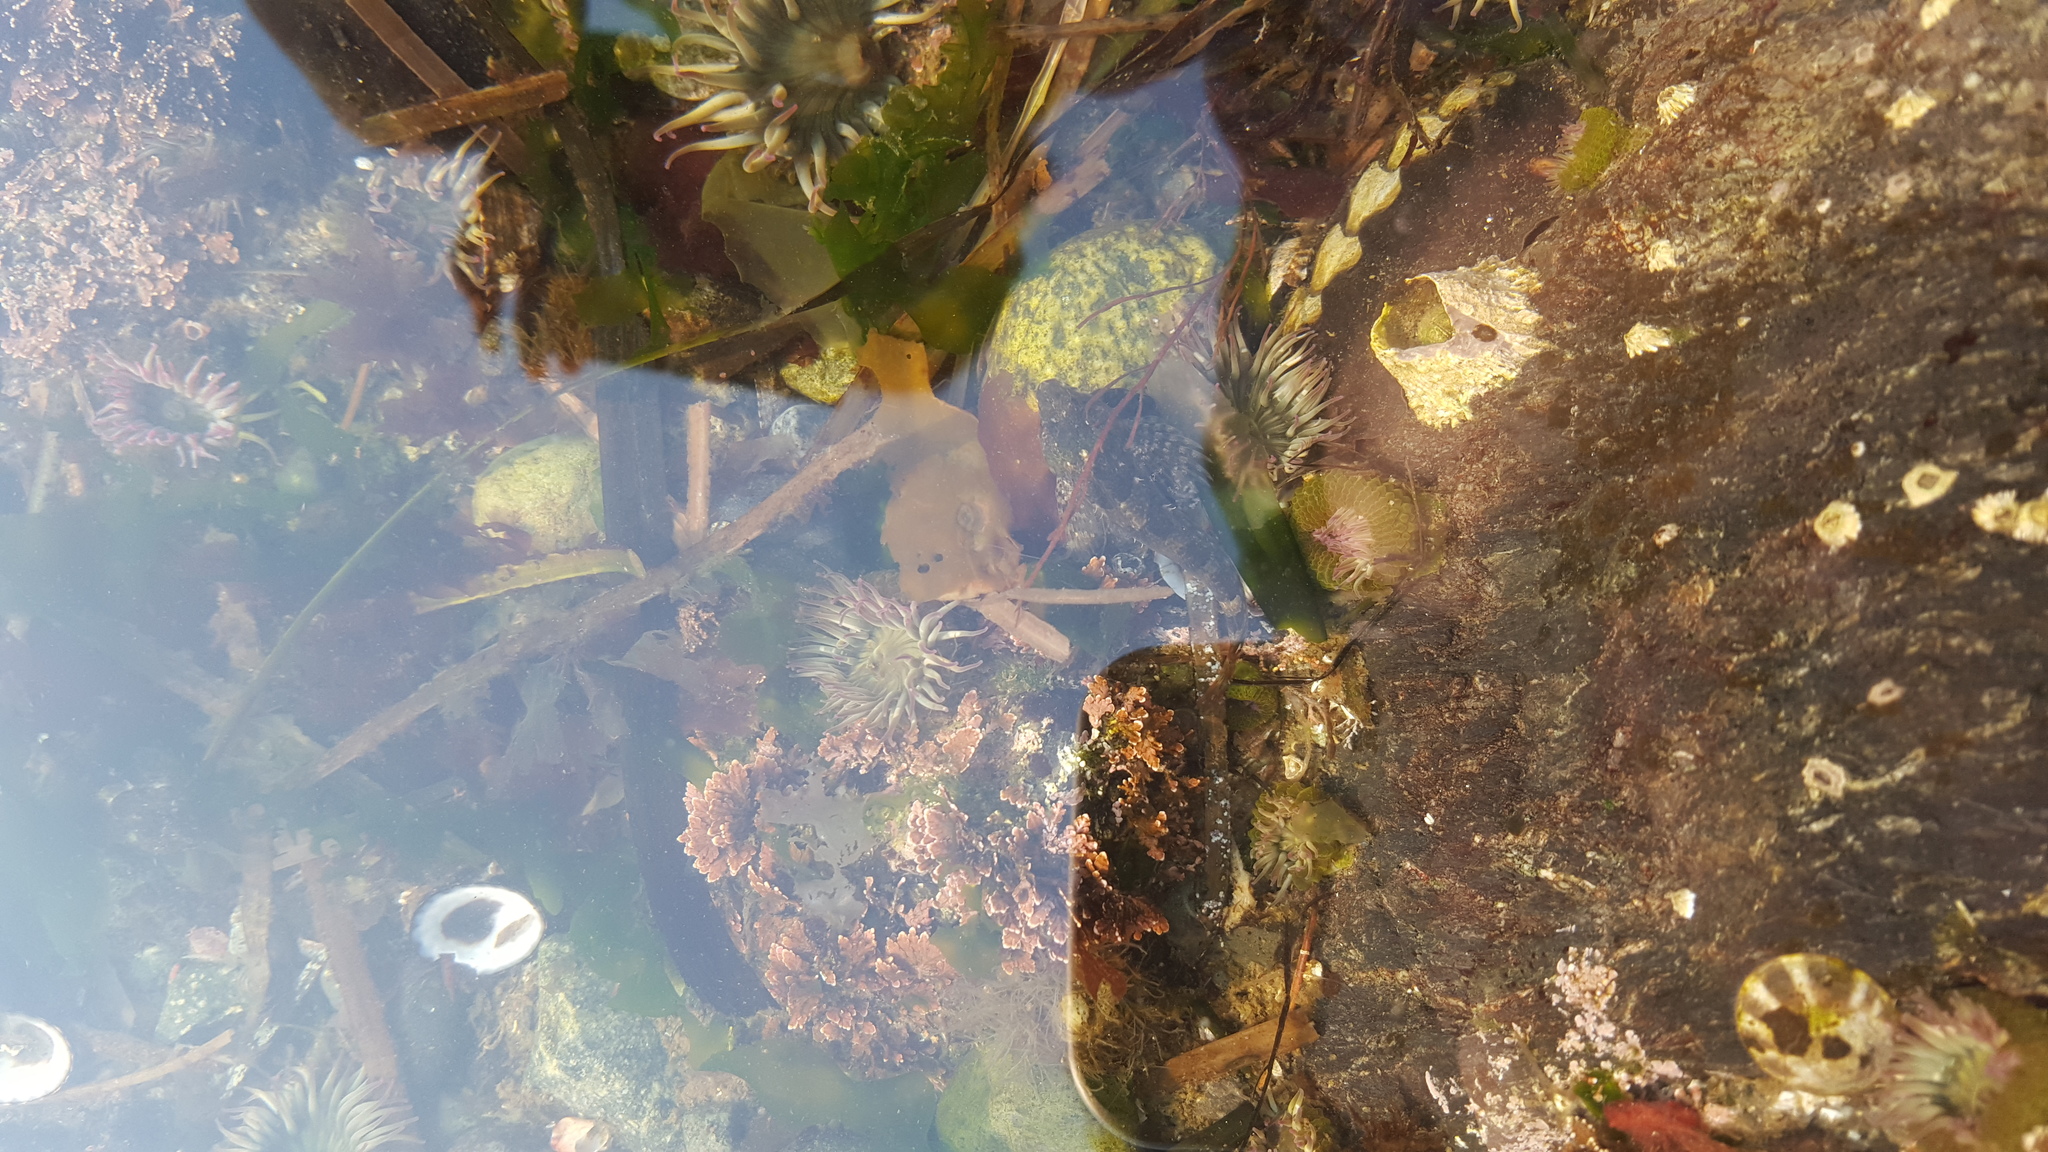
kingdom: Animalia
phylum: Cnidaria
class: Anthozoa
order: Actiniaria
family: Actiniidae
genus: Anthopleura
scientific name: Anthopleura elegantissima
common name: Clonal anemone
